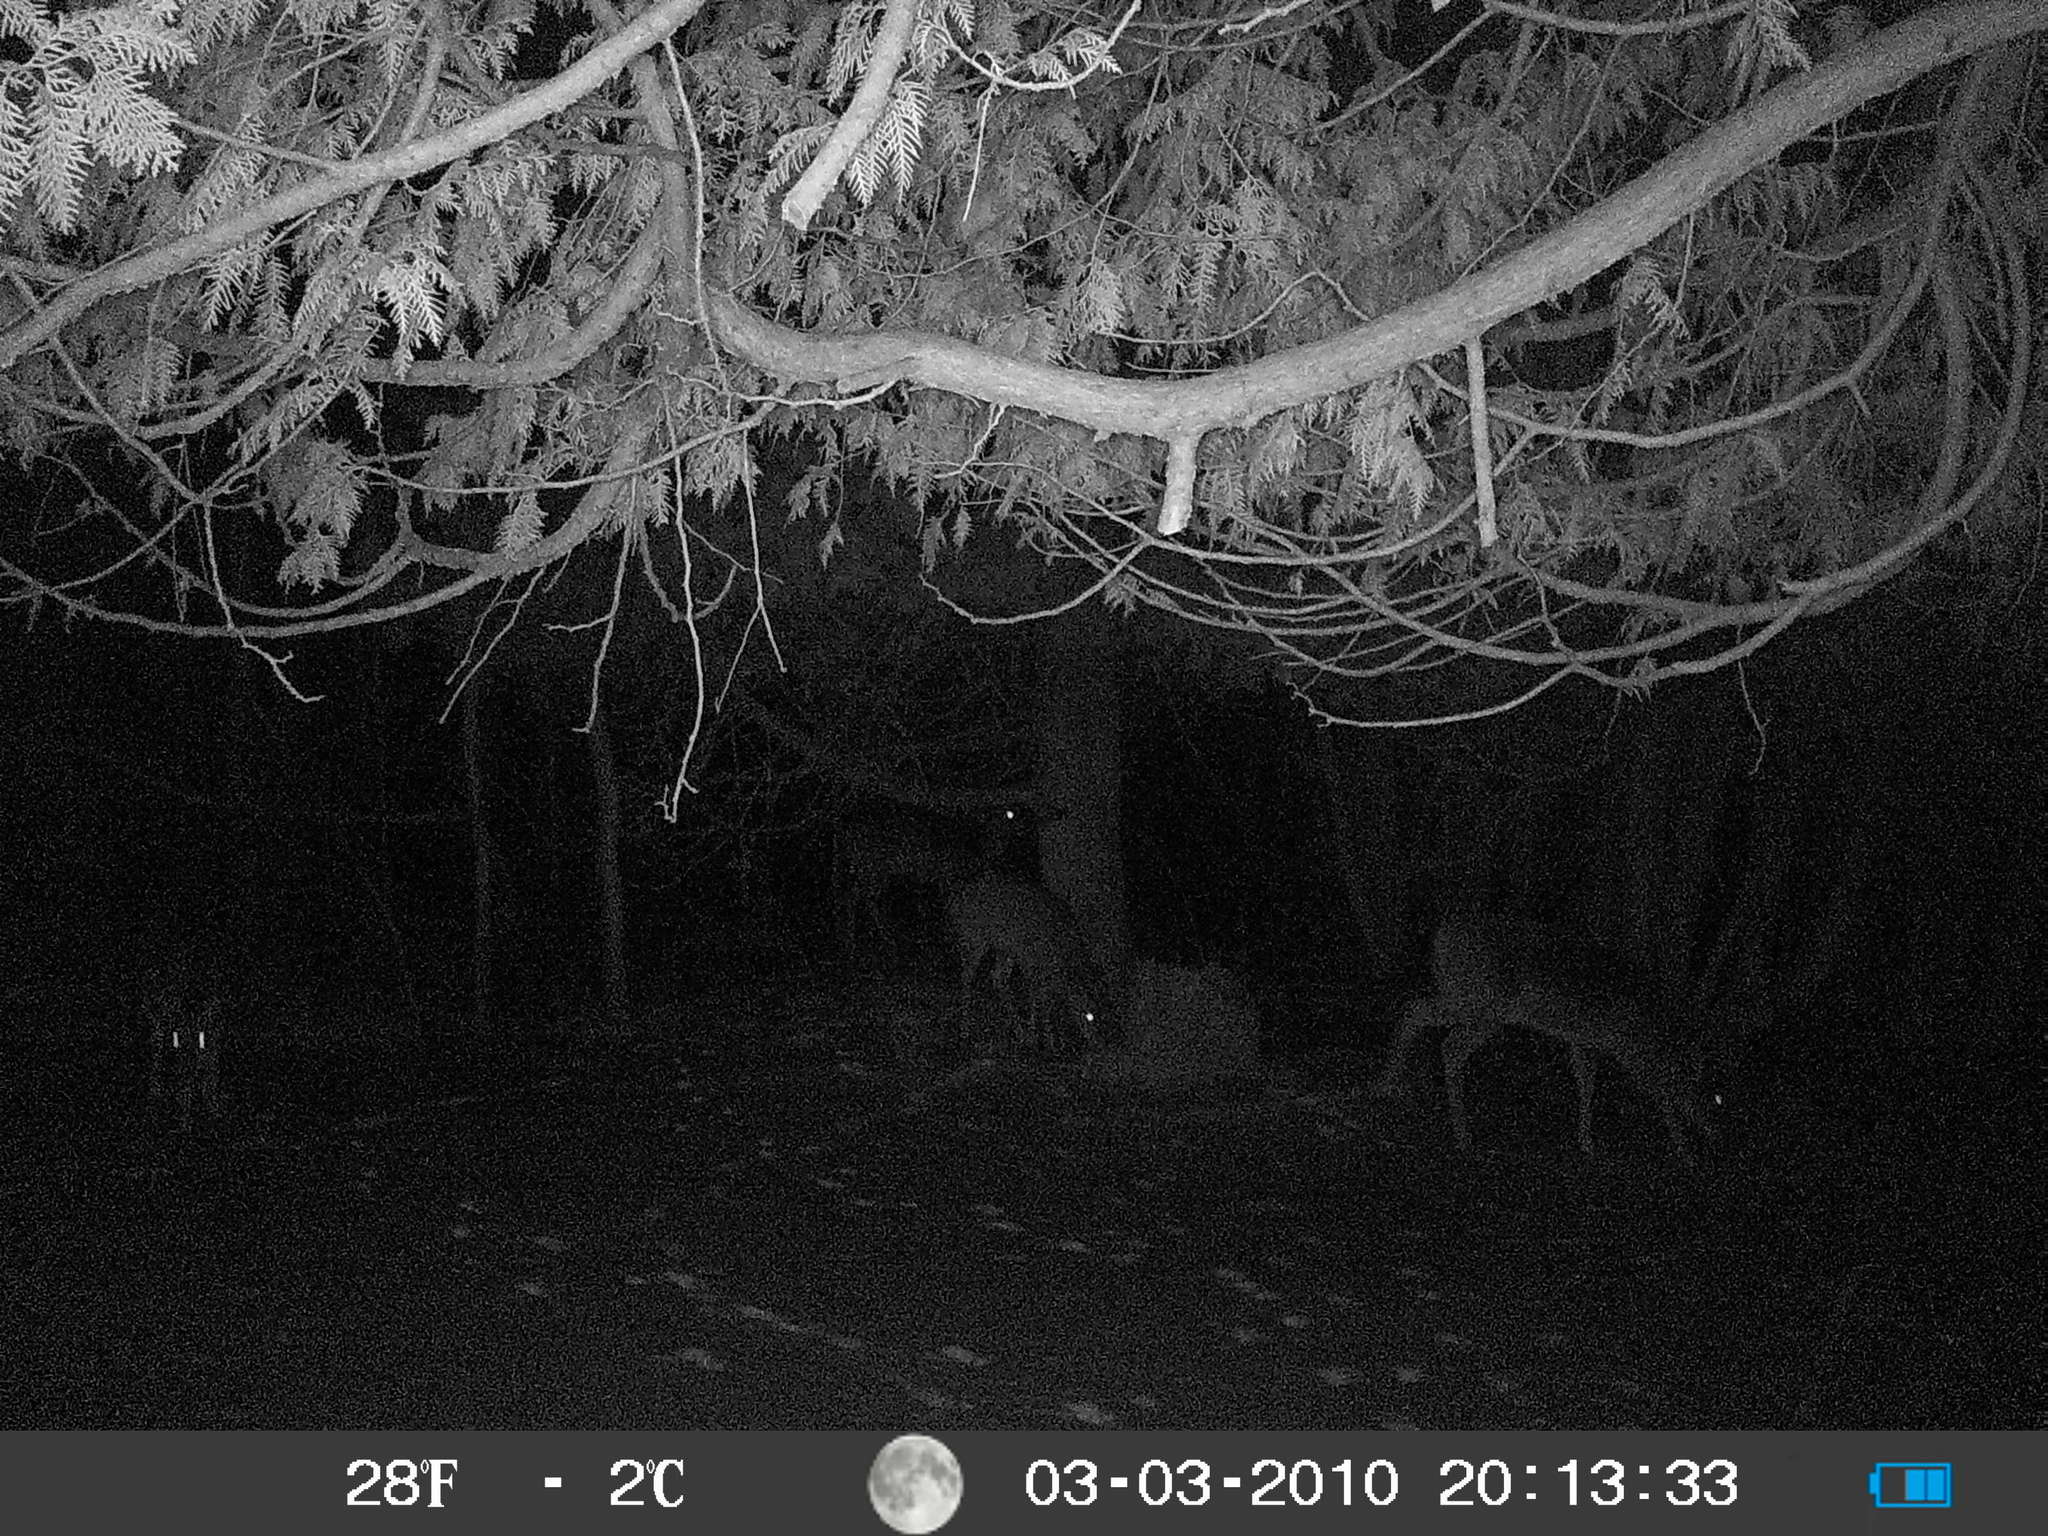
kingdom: Animalia
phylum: Chordata
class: Mammalia
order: Artiodactyla
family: Cervidae
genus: Odocoileus
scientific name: Odocoileus virginianus
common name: White-tailed deer
